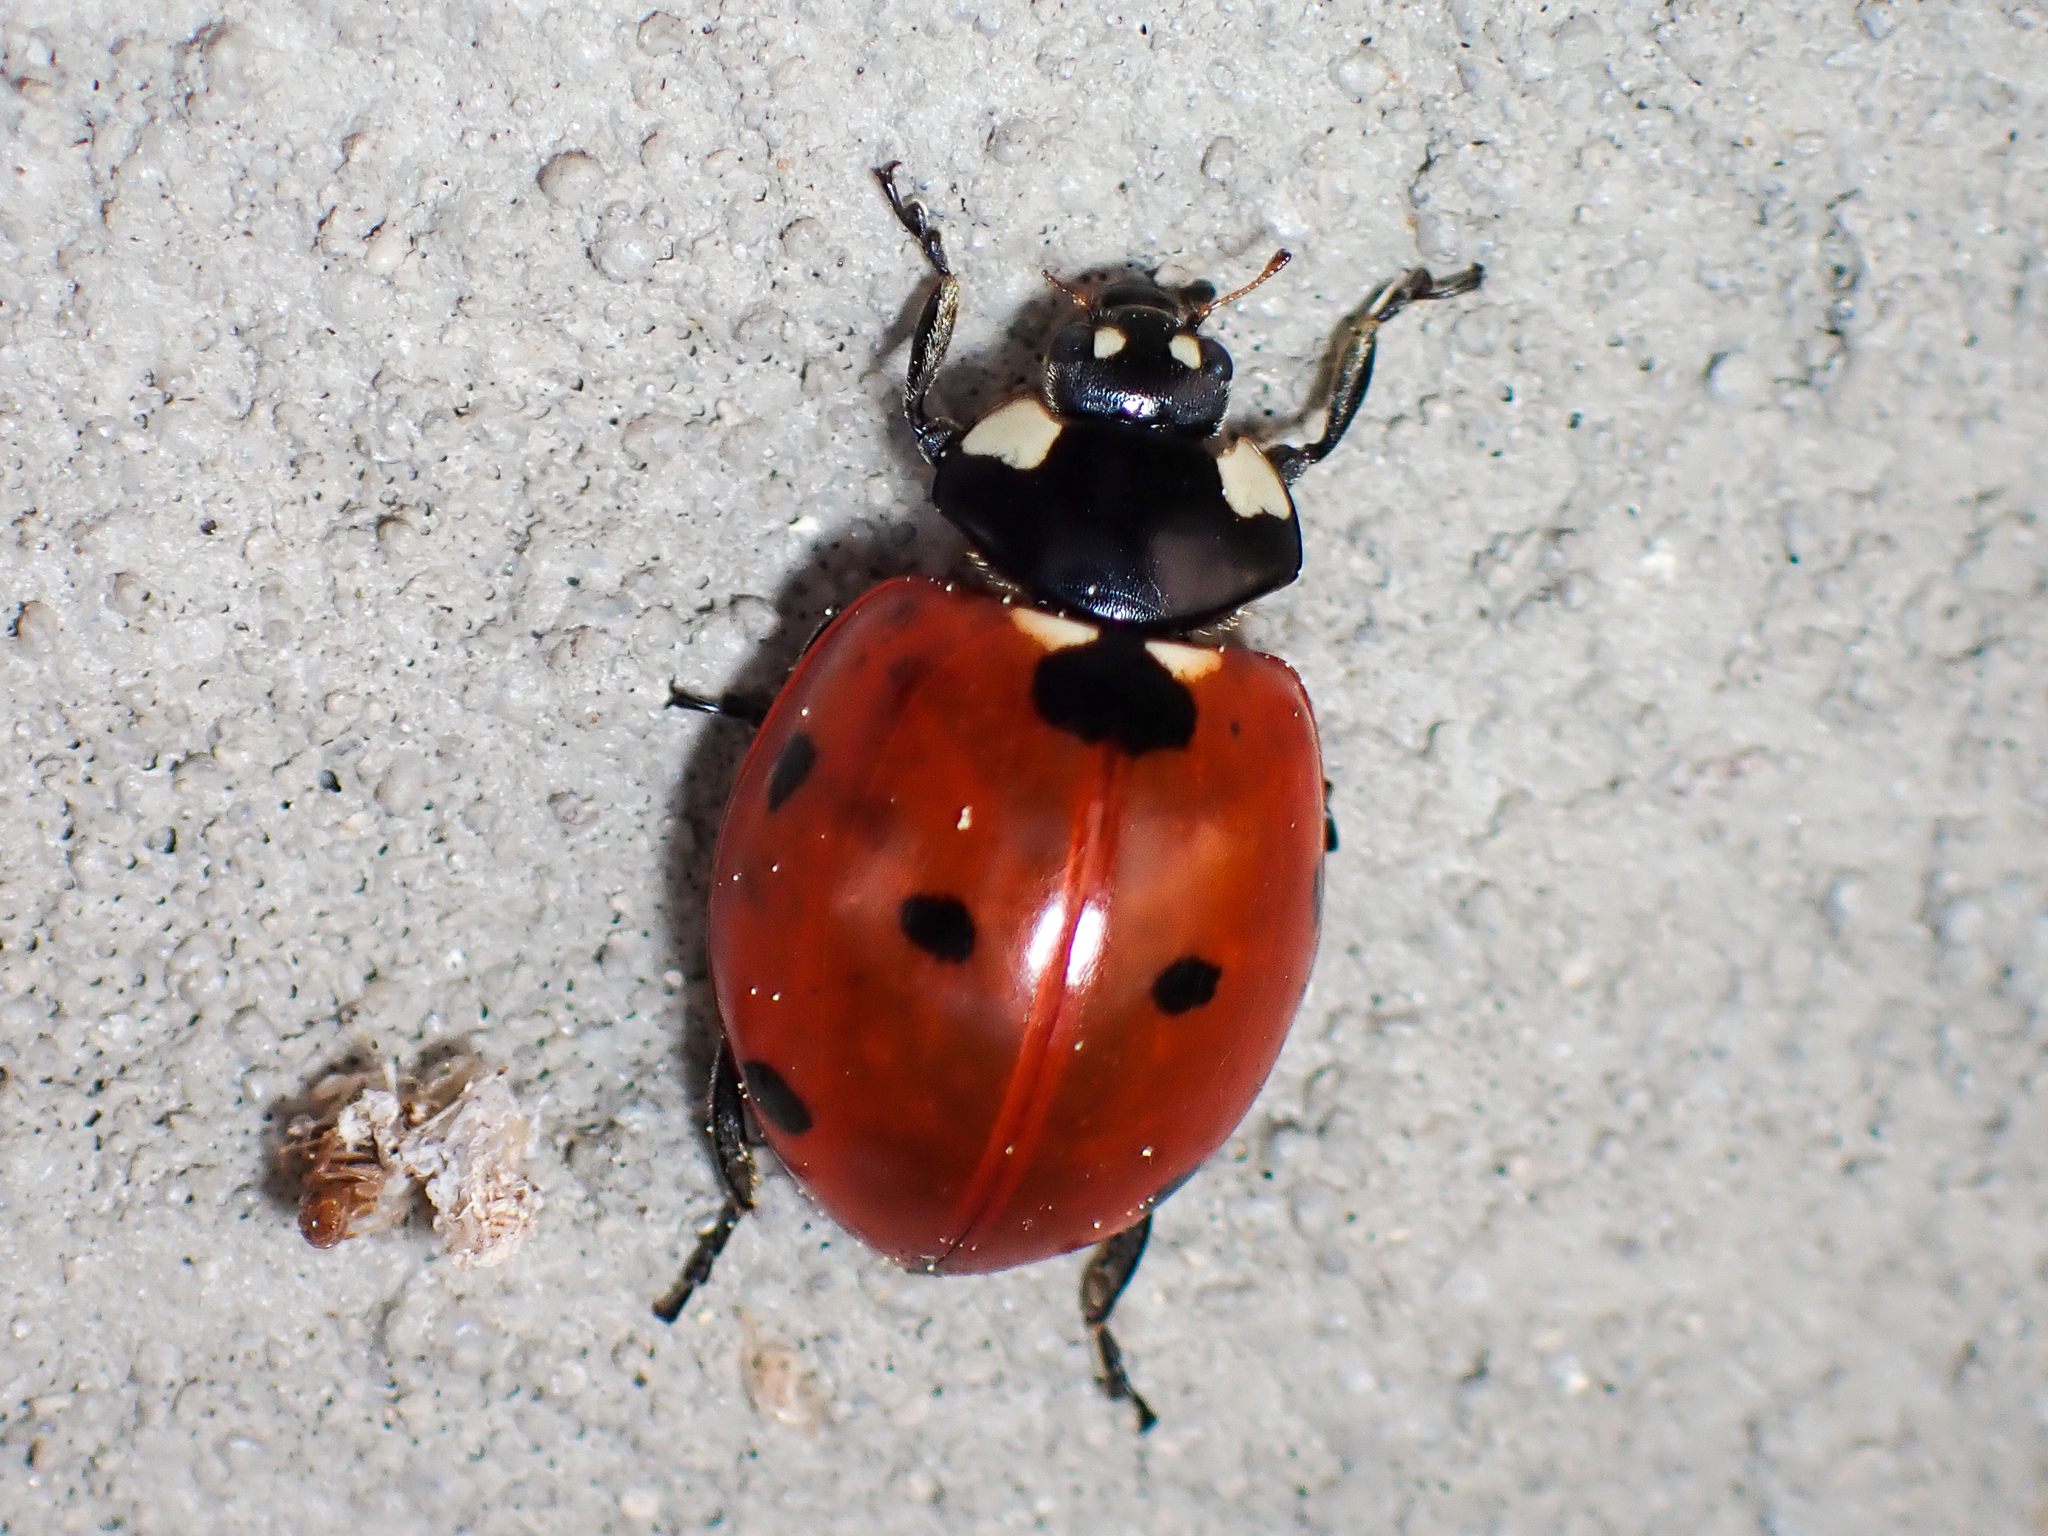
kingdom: Animalia
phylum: Arthropoda
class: Insecta
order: Coleoptera
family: Coccinellidae
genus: Coccinella
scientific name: Coccinella septempunctata
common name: Sevenspotted lady beetle
